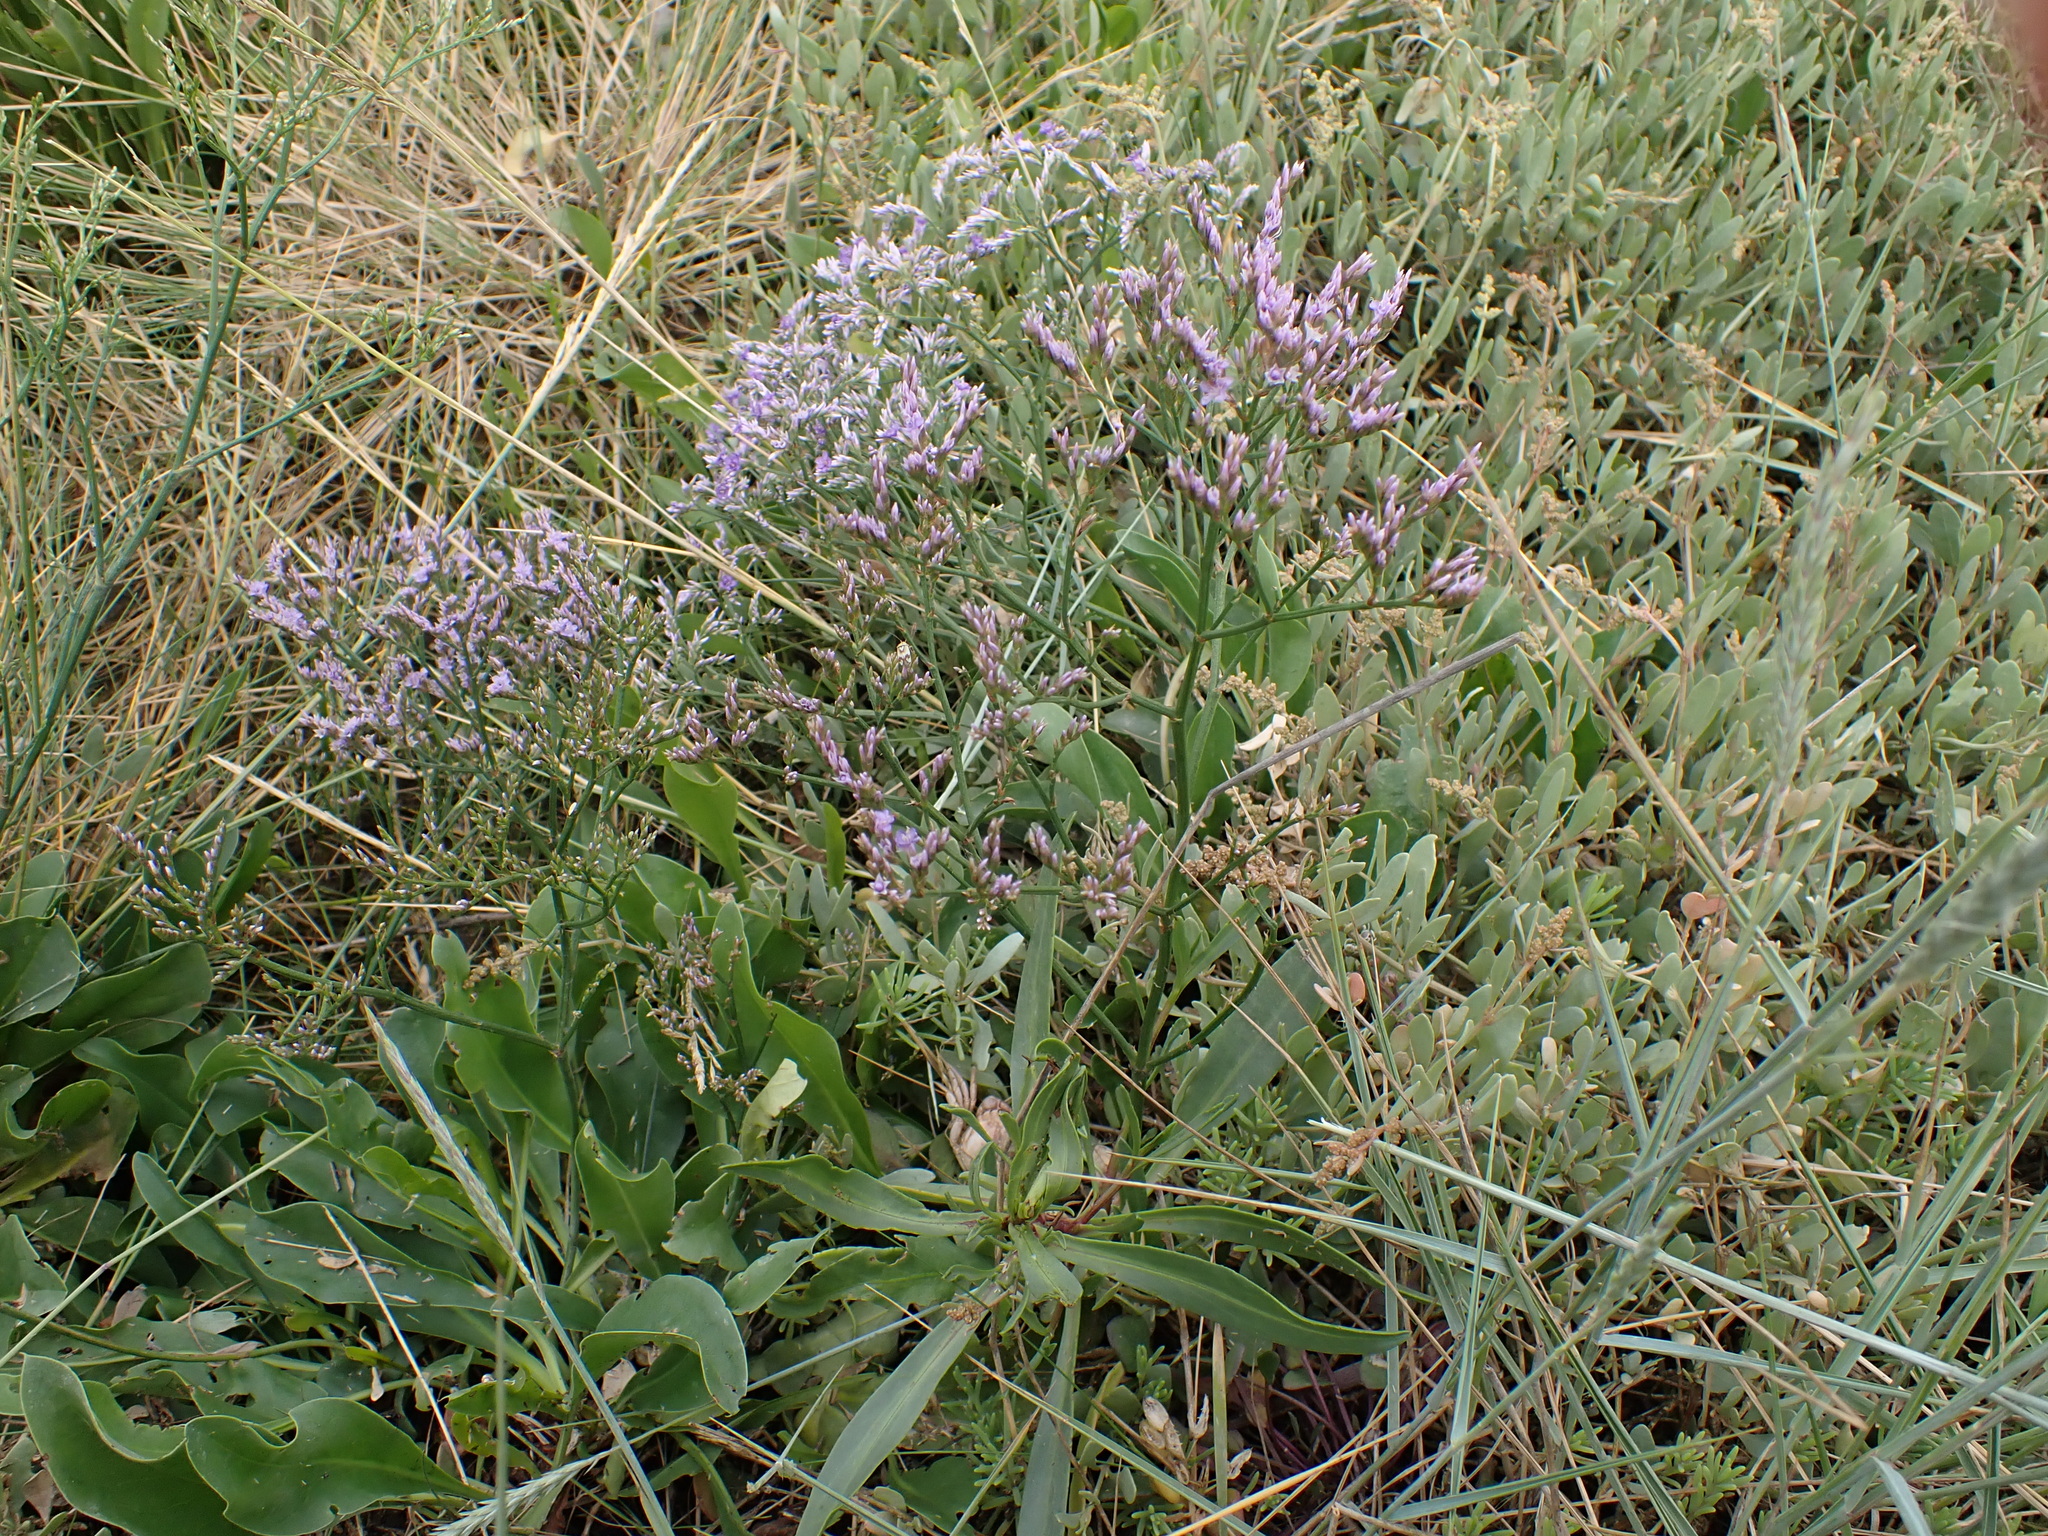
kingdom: Plantae
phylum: Tracheophyta
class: Magnoliopsida
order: Caryophyllales
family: Plumbaginaceae
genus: Limonium
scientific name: Limonium vulgare
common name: Common sea-lavender
